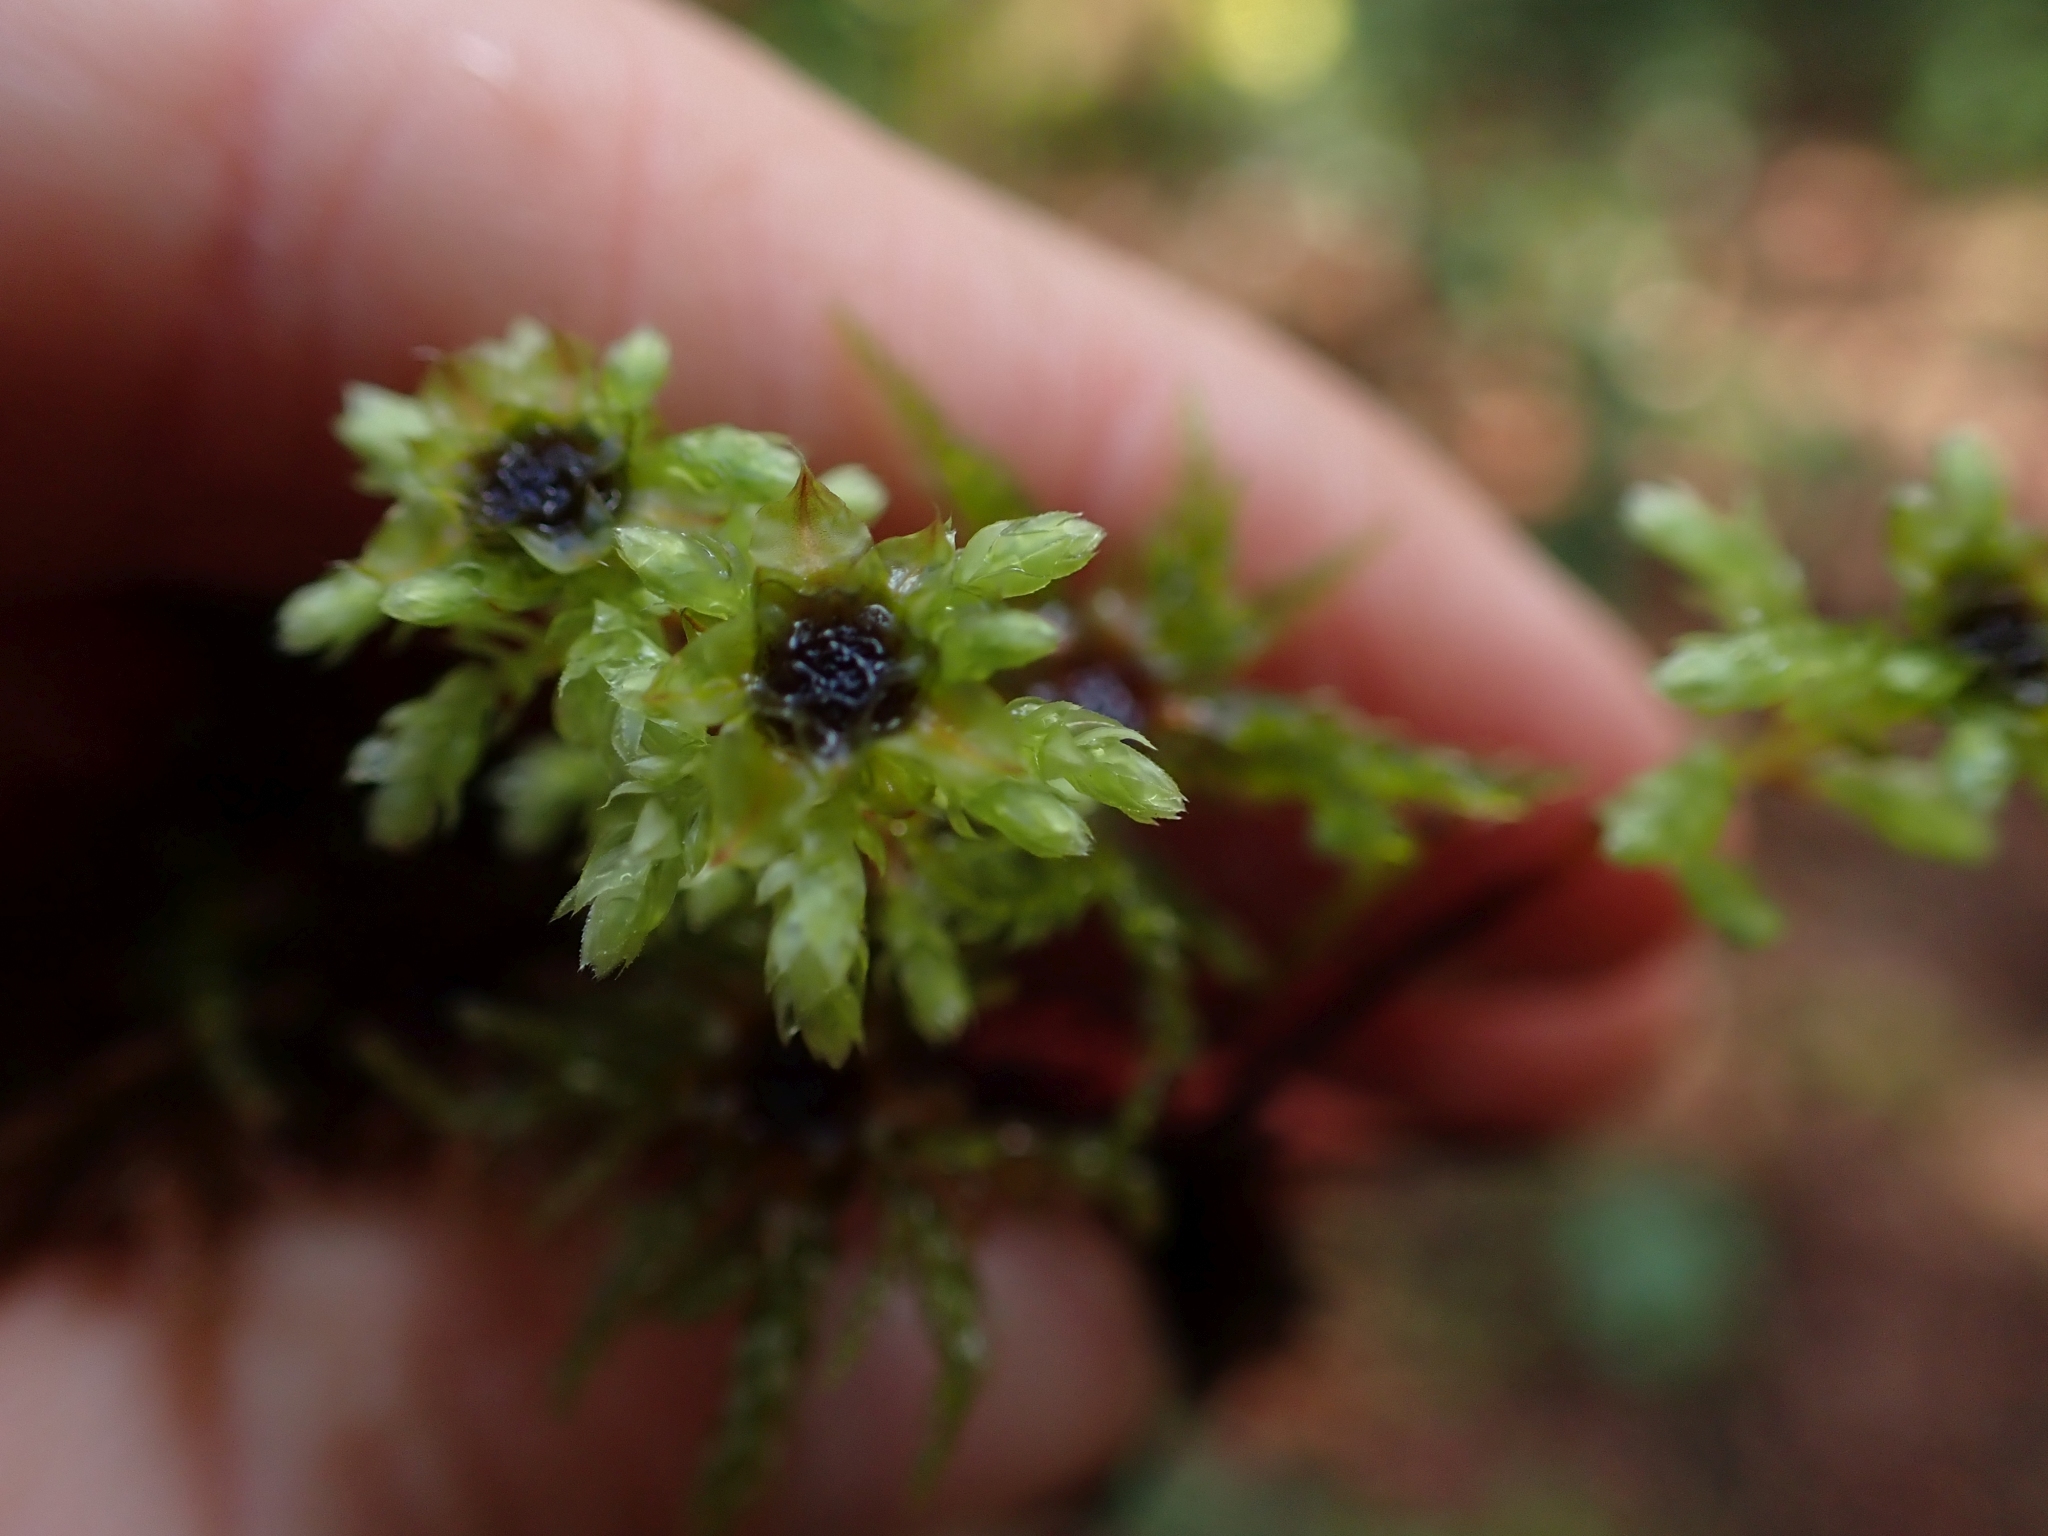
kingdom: Plantae
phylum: Bryophyta
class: Bryopsida
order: Bryales
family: Mniaceae
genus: Leucolepis
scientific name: Leucolepis acanthoneura
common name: Leucolepis umbrella moss
